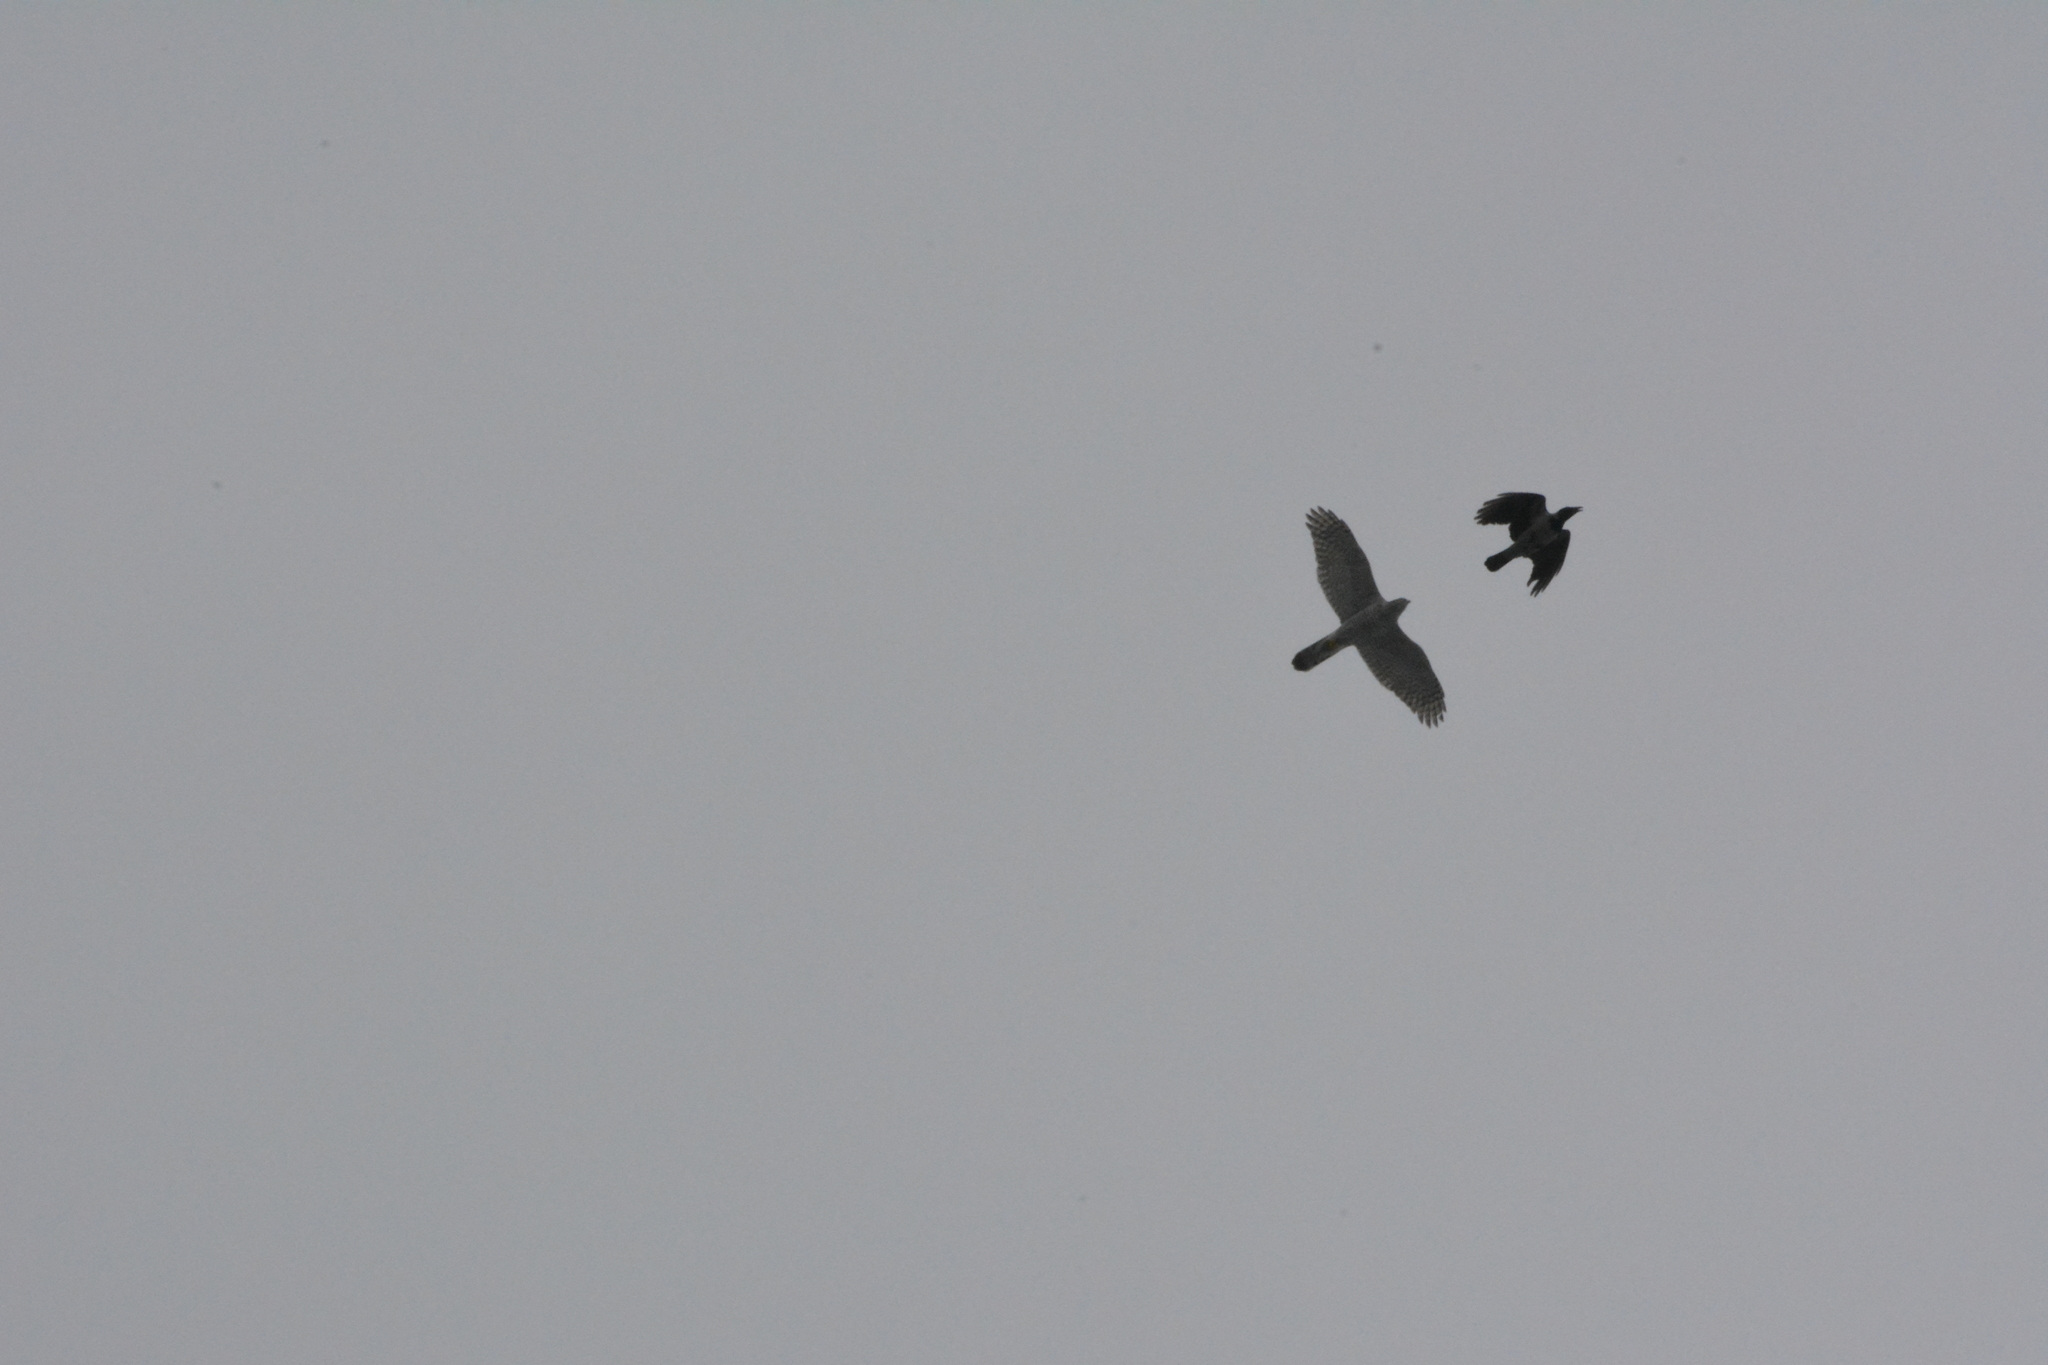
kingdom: Animalia
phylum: Chordata
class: Aves
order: Accipitriformes
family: Accipitridae
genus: Accipiter
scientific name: Accipiter gentilis
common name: Northern goshawk
